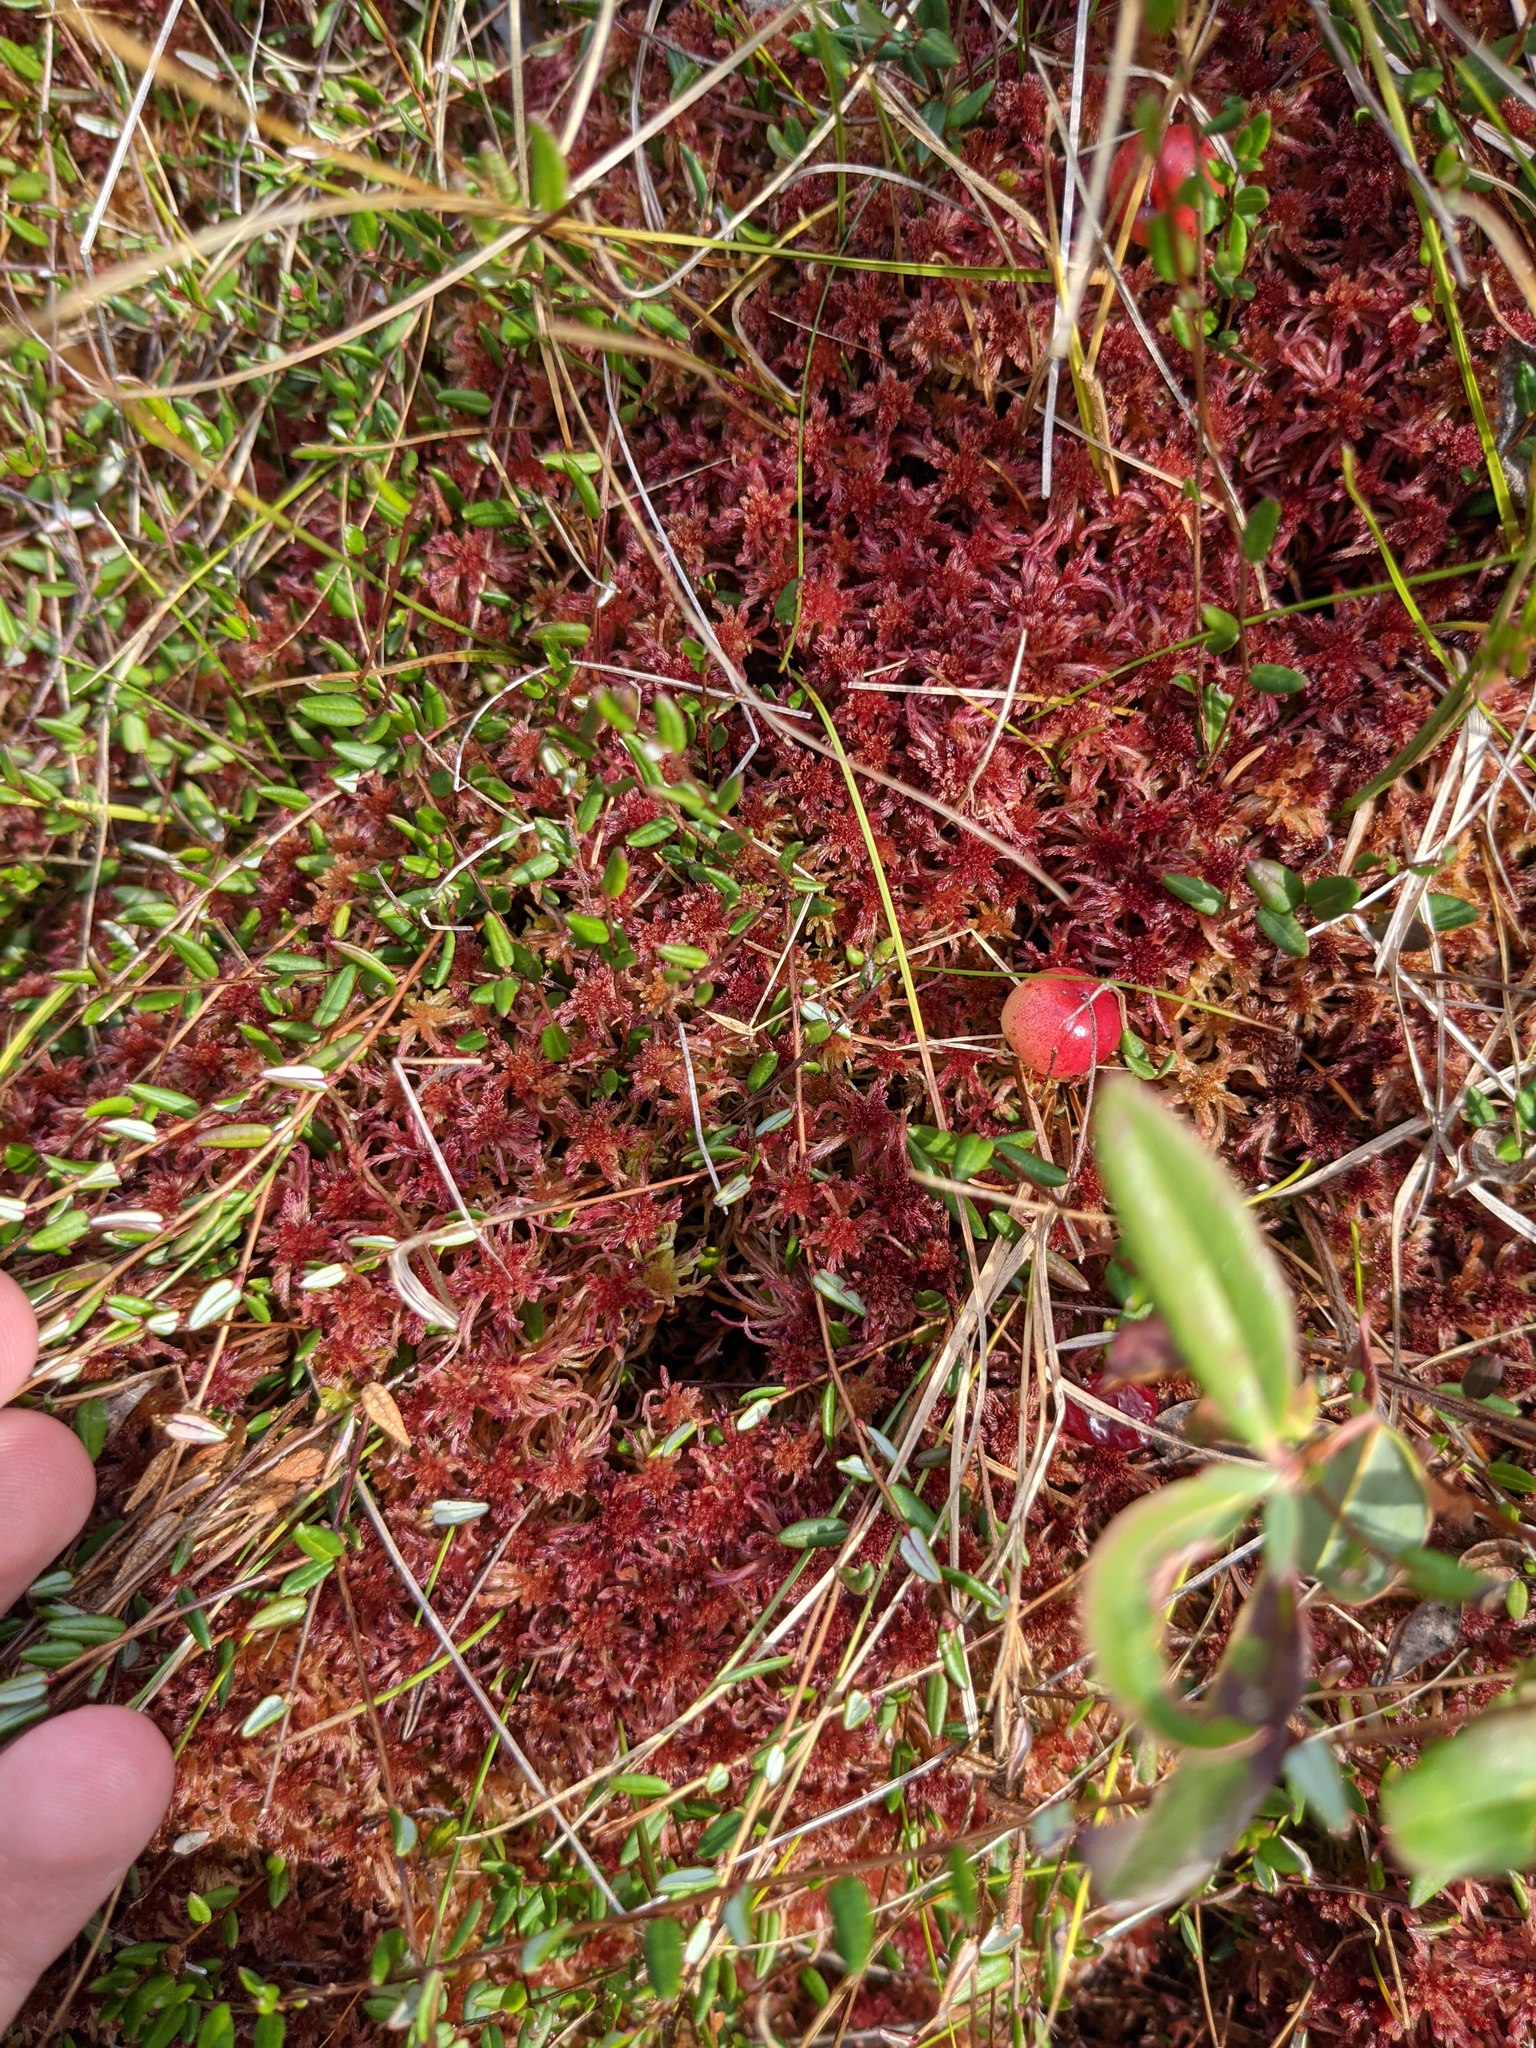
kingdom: Plantae
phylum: Tracheophyta
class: Magnoliopsida
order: Ericales
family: Ericaceae
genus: Vaccinium
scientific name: Vaccinium oxycoccos
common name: Cranberry
